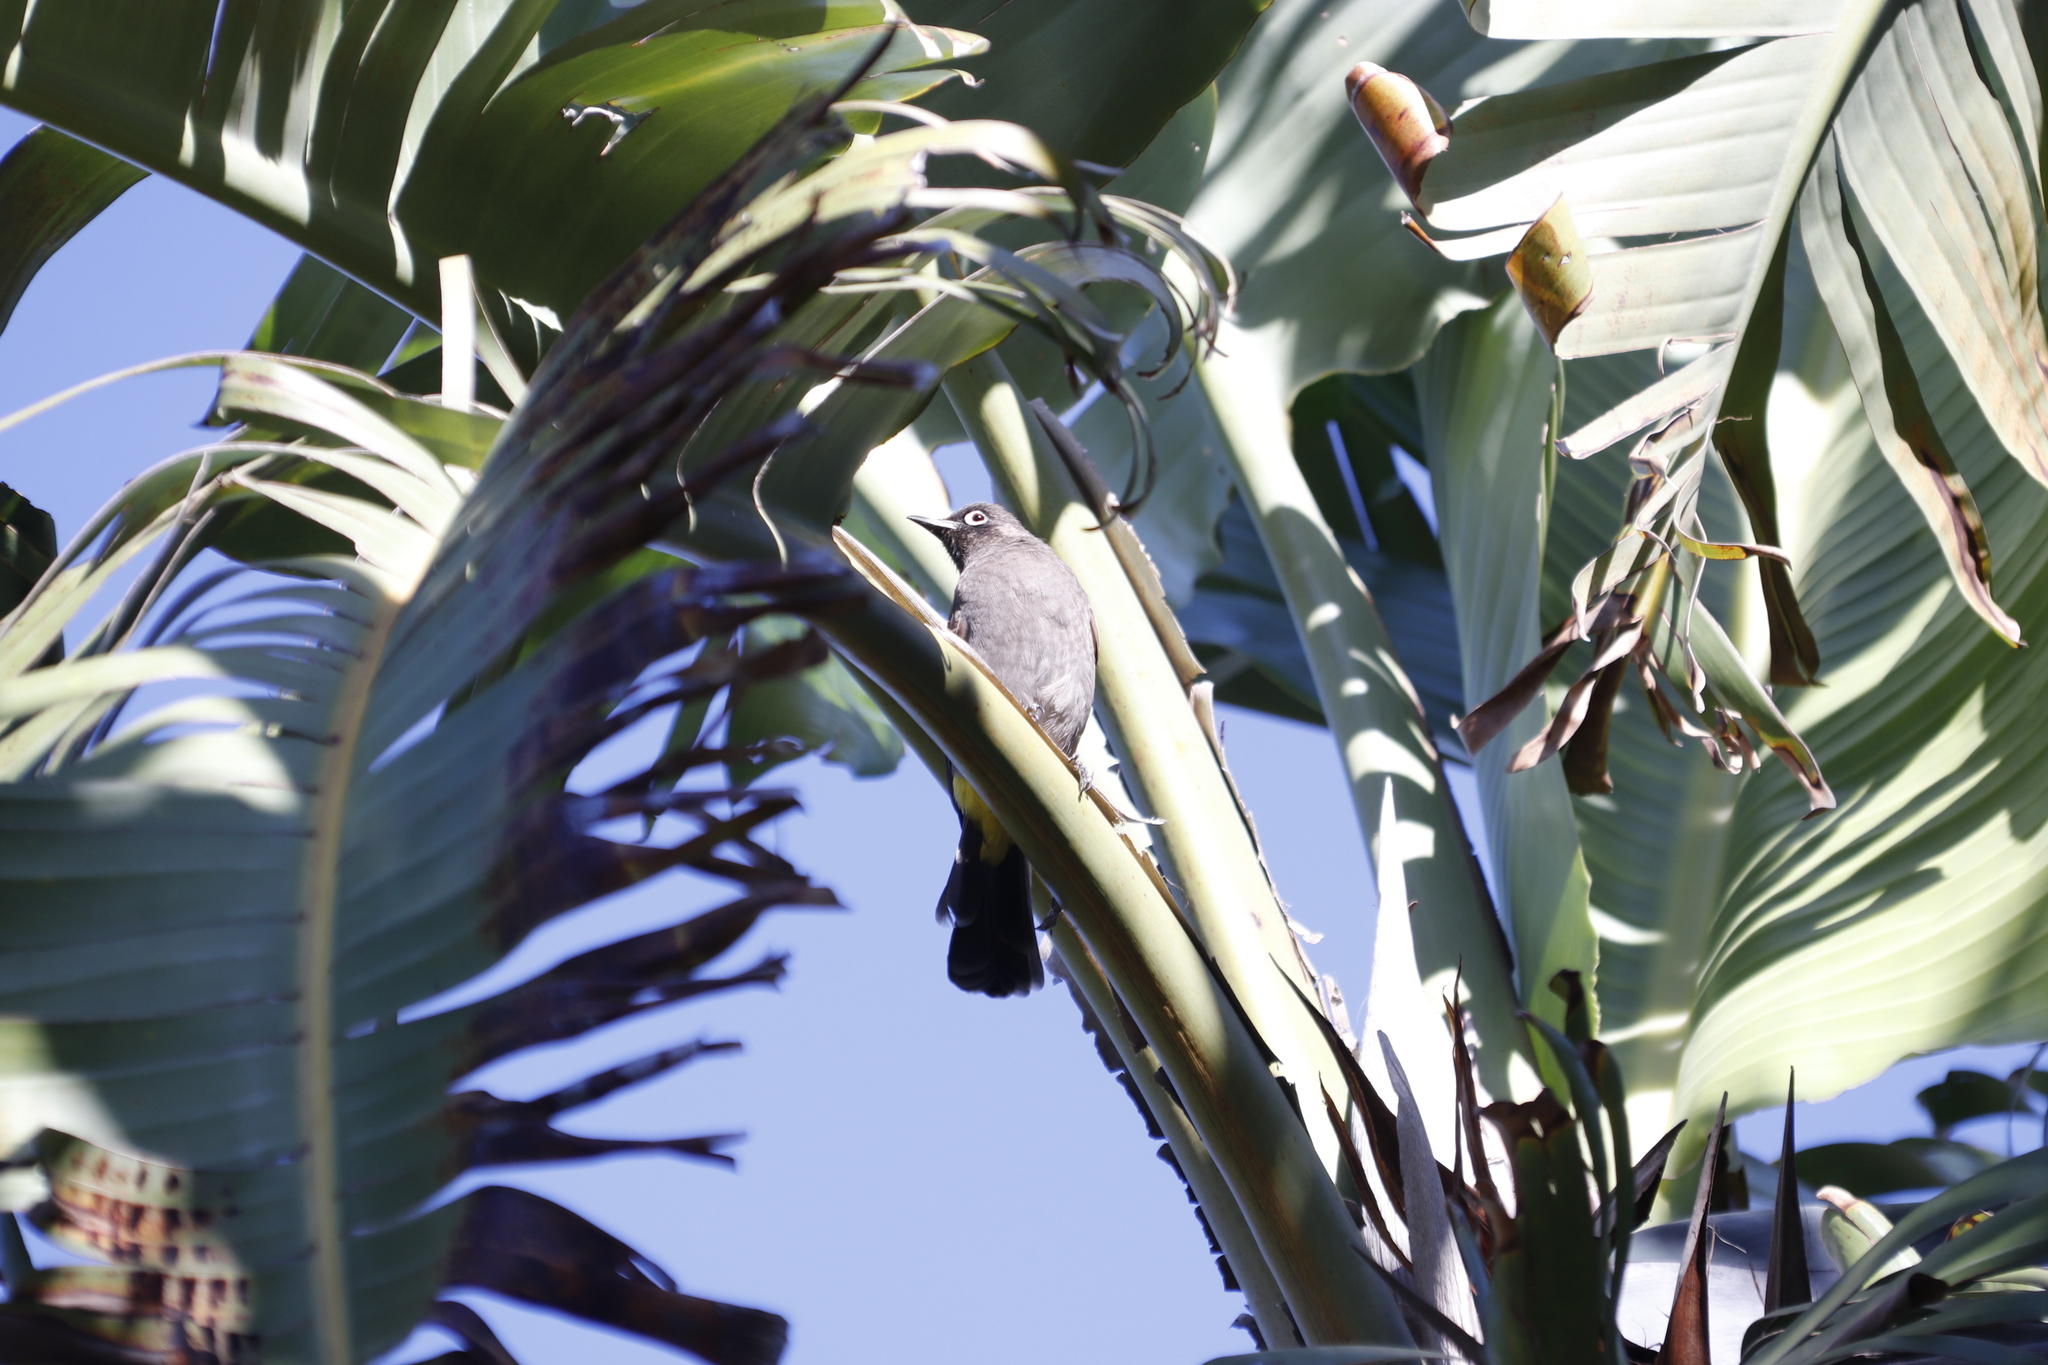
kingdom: Animalia
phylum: Chordata
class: Aves
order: Passeriformes
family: Pycnonotidae
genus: Pycnonotus
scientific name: Pycnonotus capensis
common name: Cape bulbul
